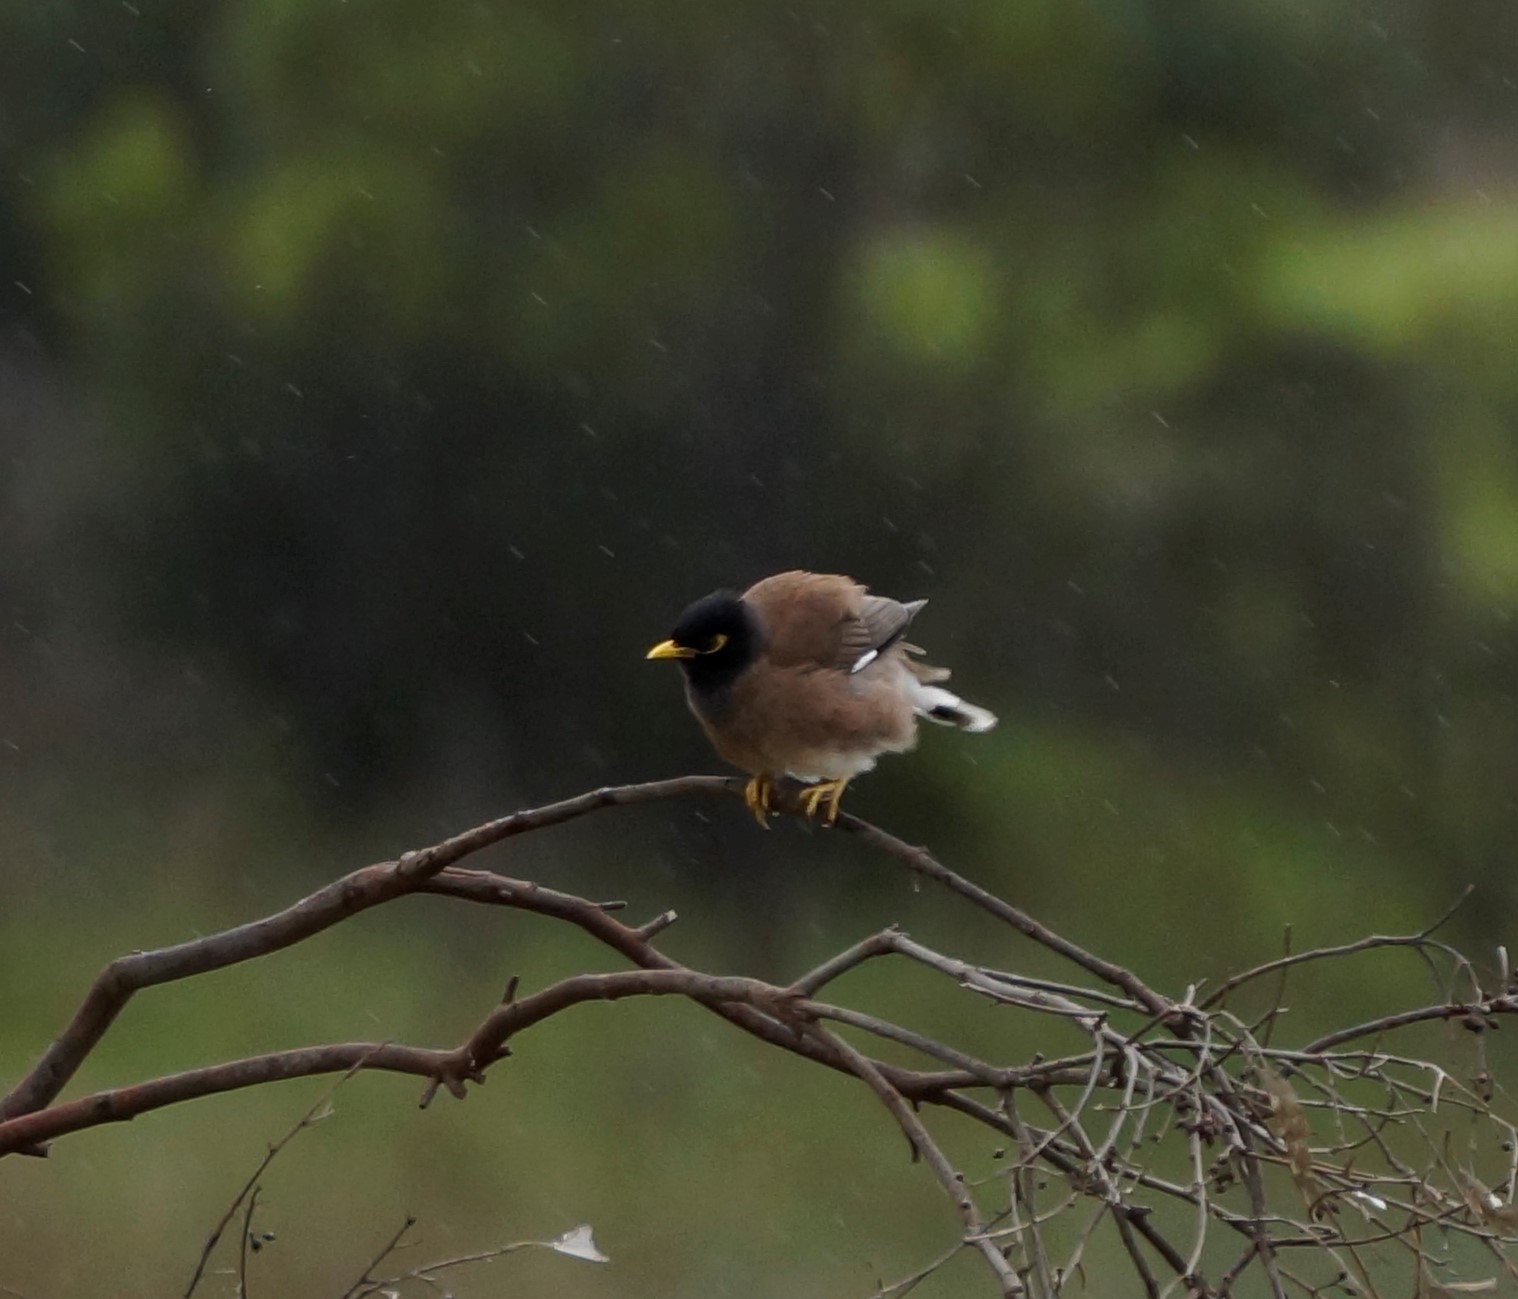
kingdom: Animalia
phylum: Chordata
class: Aves
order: Passeriformes
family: Sturnidae
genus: Acridotheres
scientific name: Acridotheres tristis
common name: Common myna
